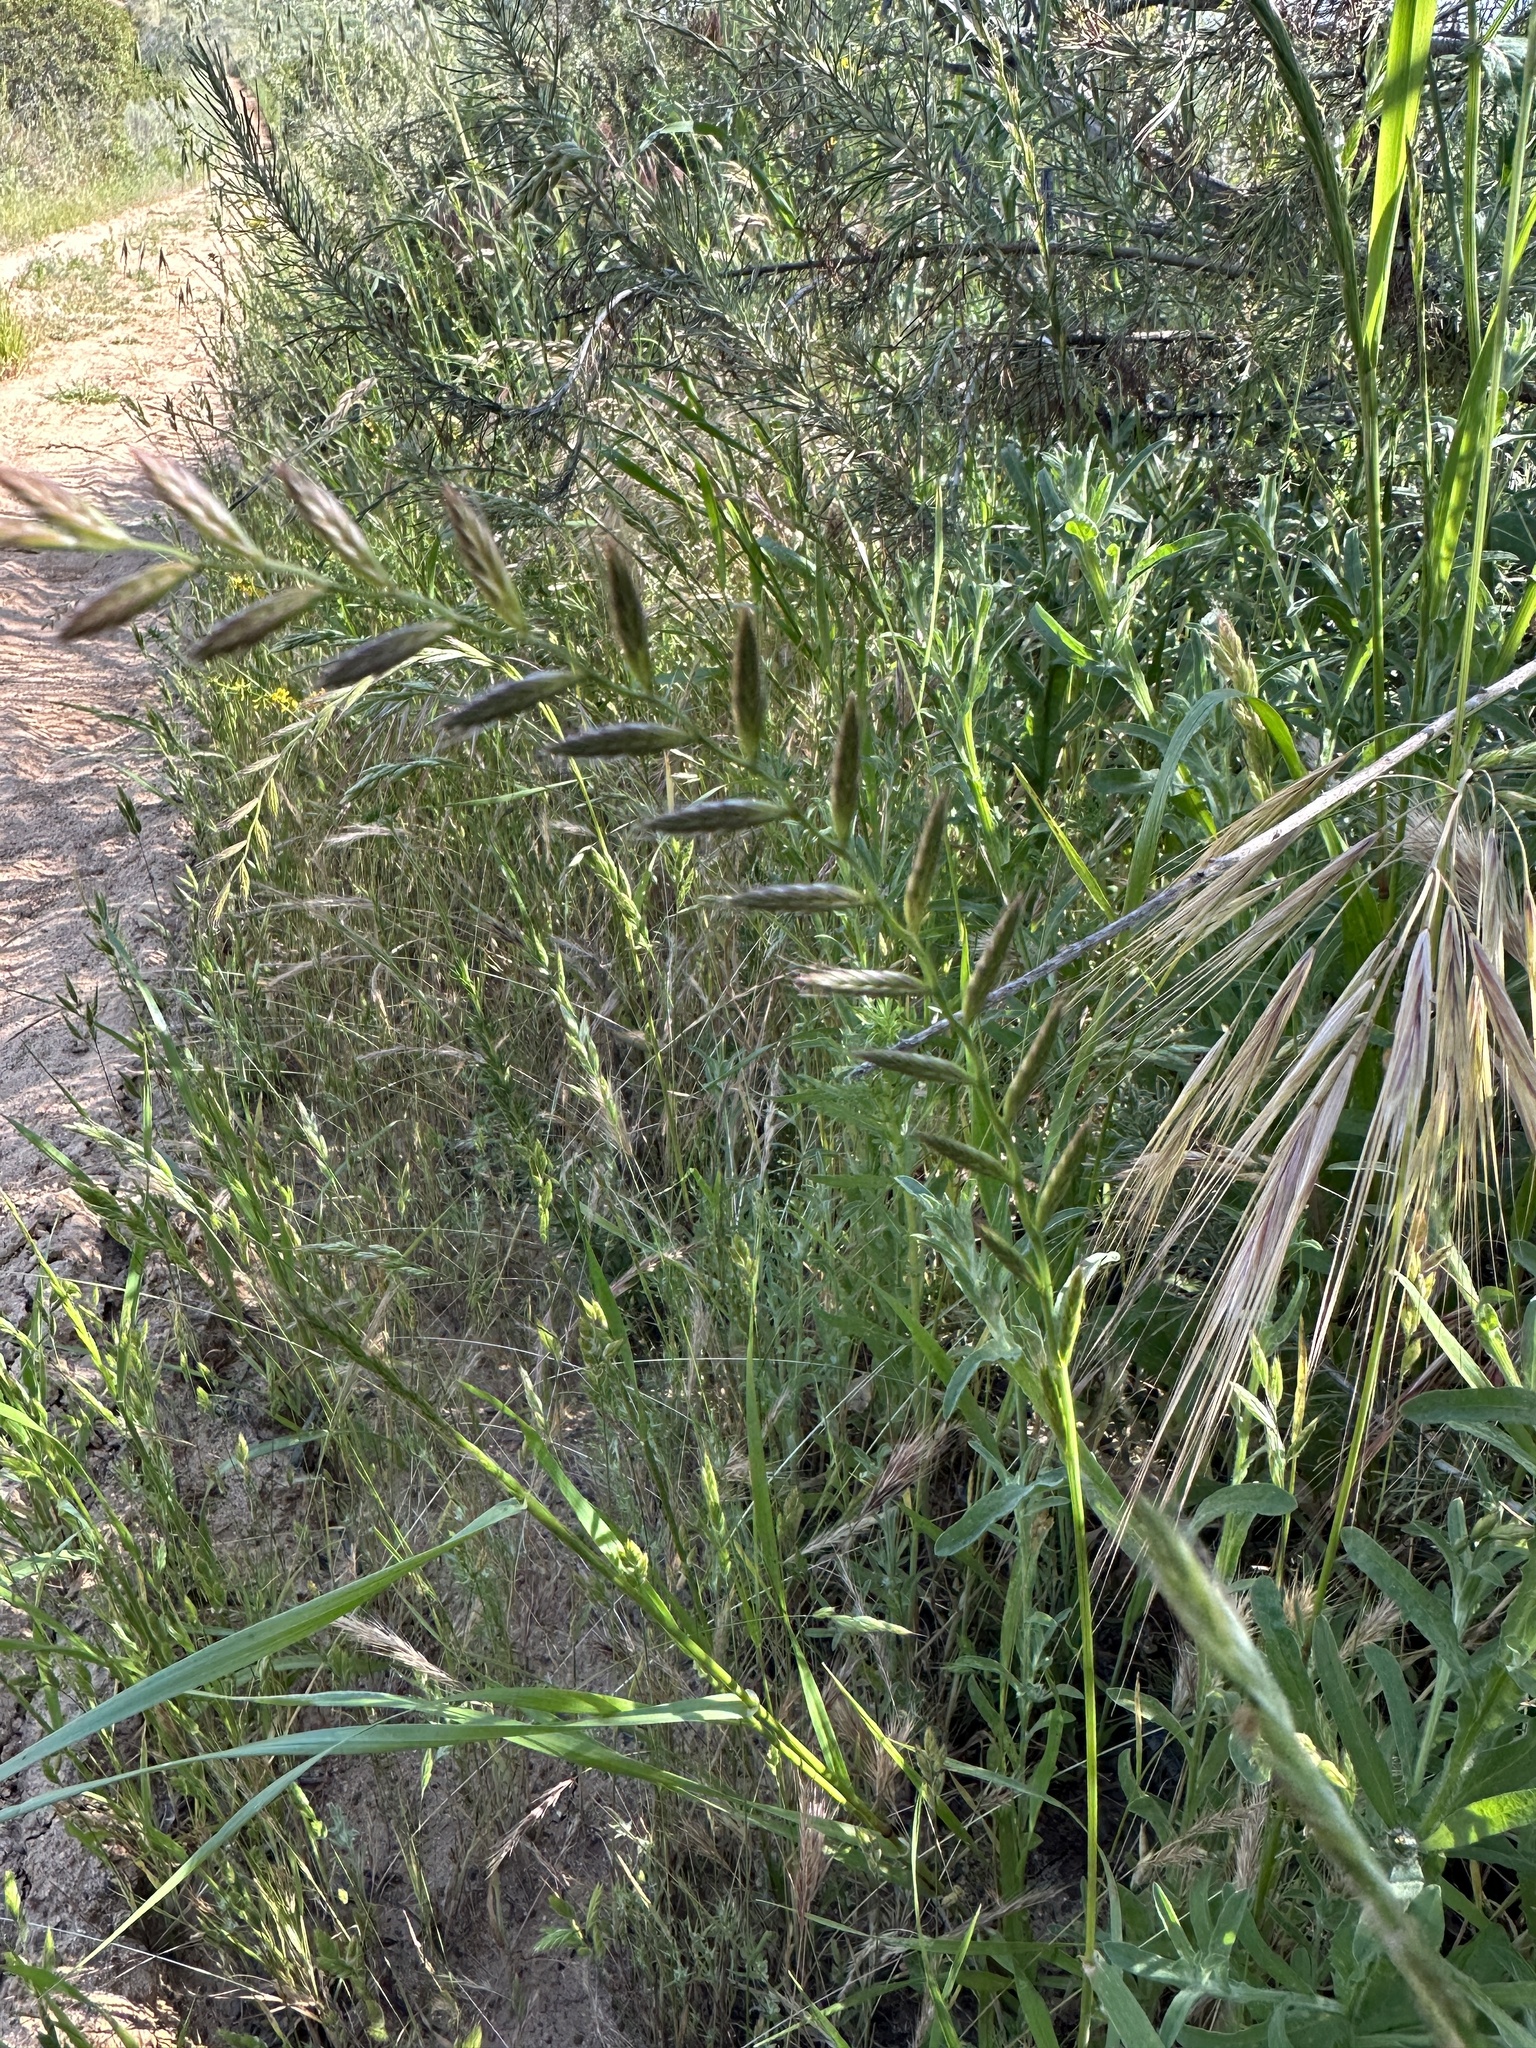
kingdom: Plantae
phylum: Tracheophyta
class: Liliopsida
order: Poales
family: Poaceae
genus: Lolium
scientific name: Lolium multiflorum
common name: Annual ryegrass
